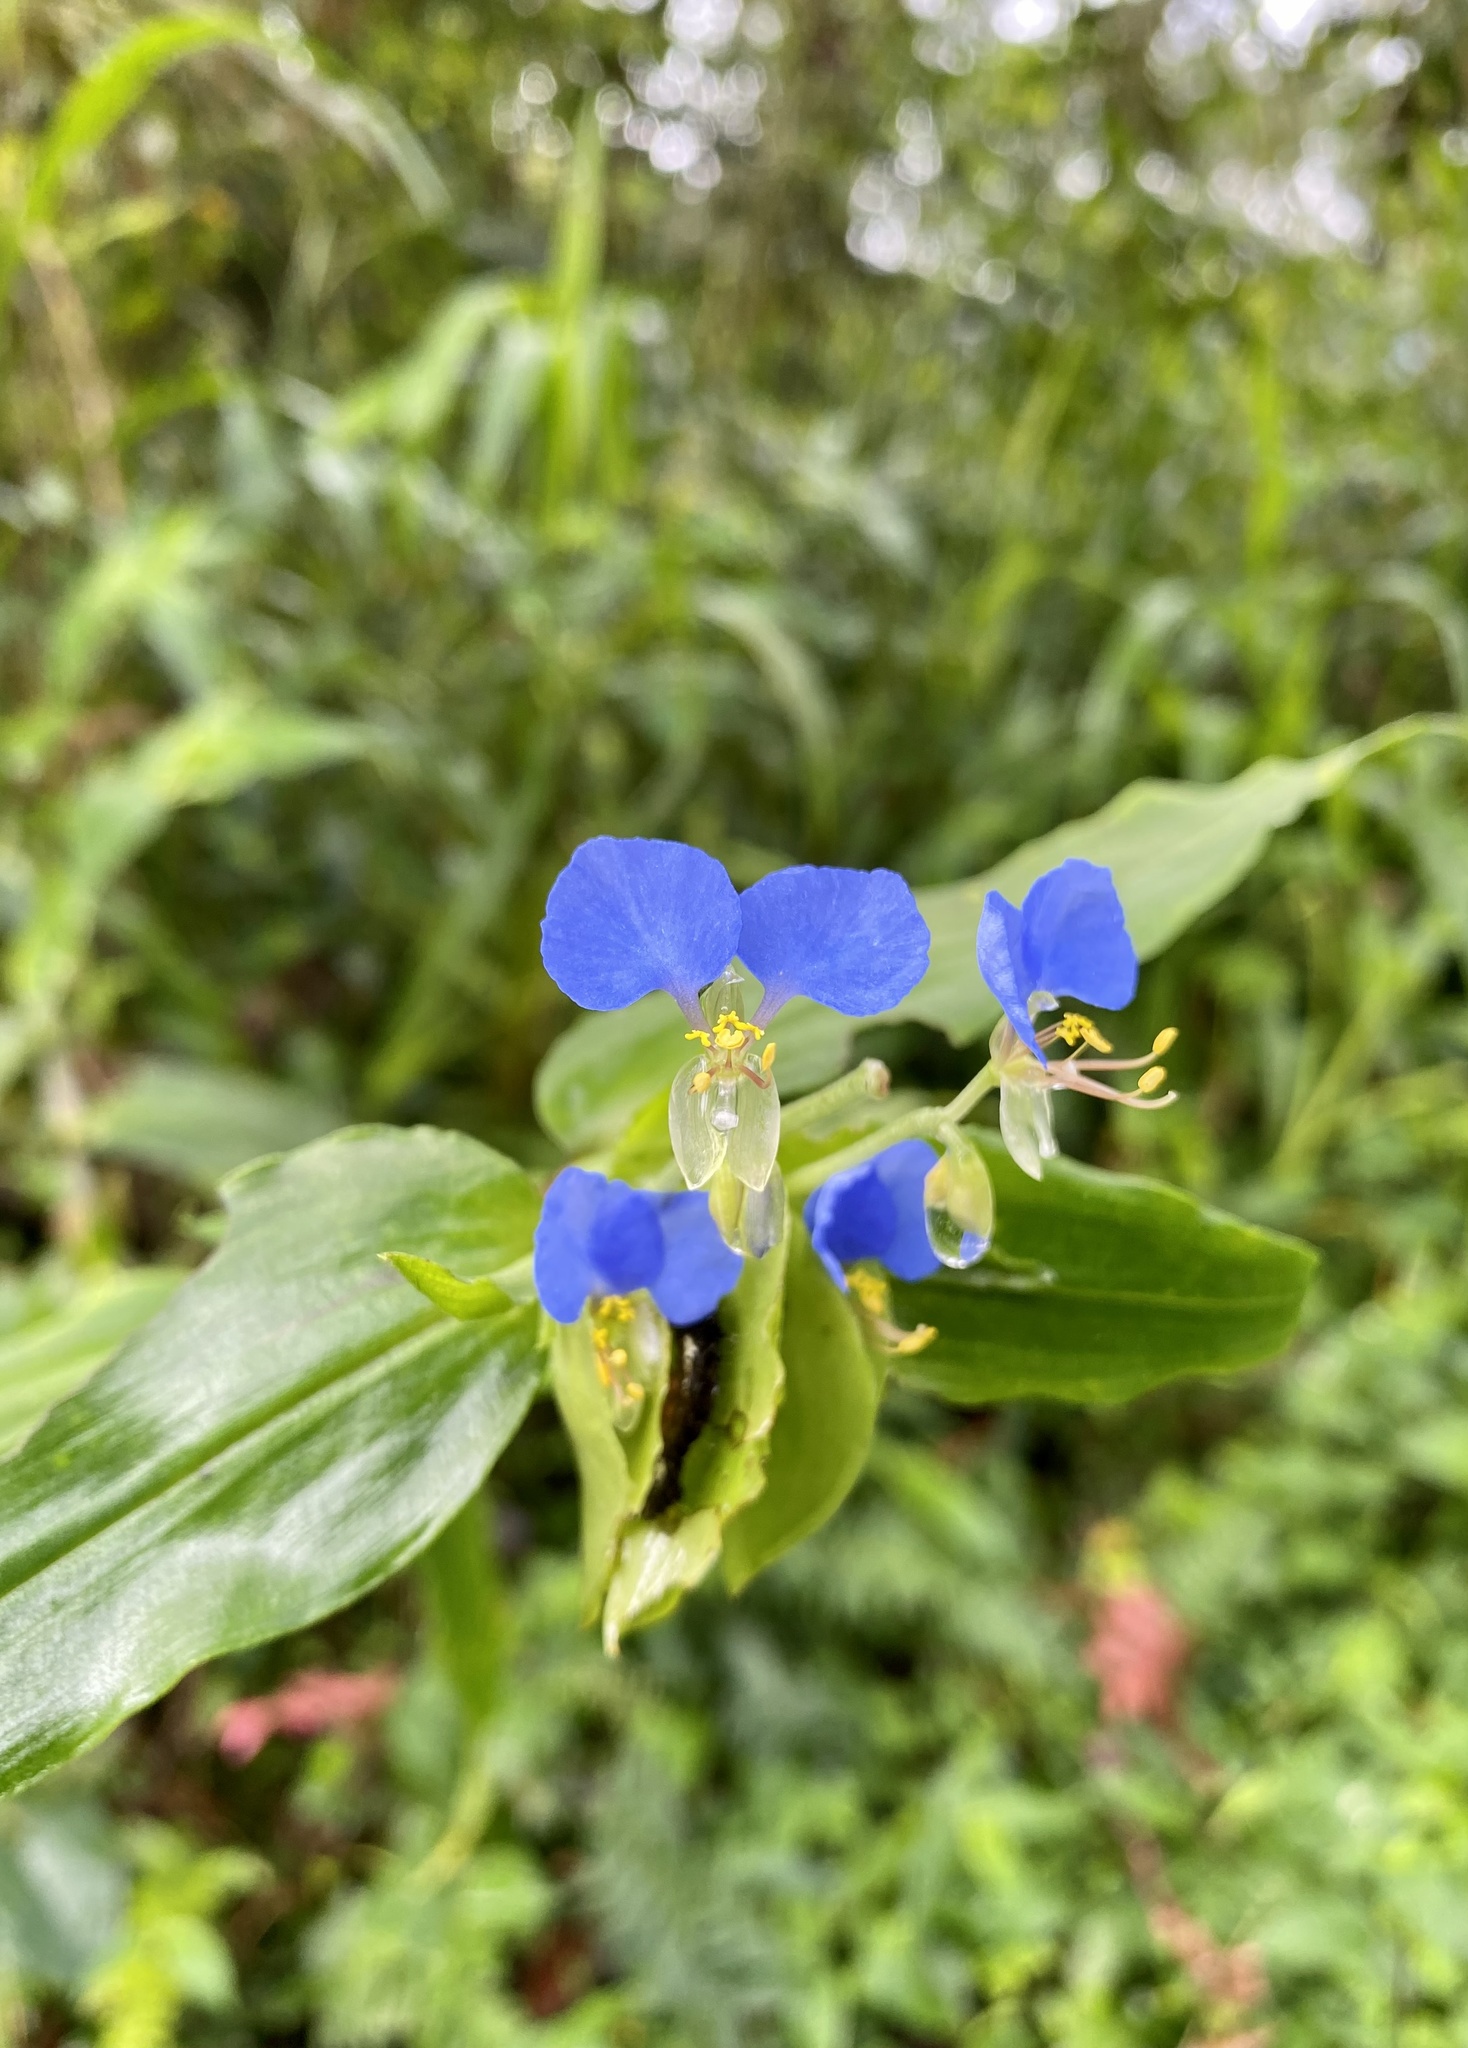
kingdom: Plantae
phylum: Tracheophyta
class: Liliopsida
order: Commelinales
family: Commelinaceae
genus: Commelina
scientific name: Commelina obliqua
